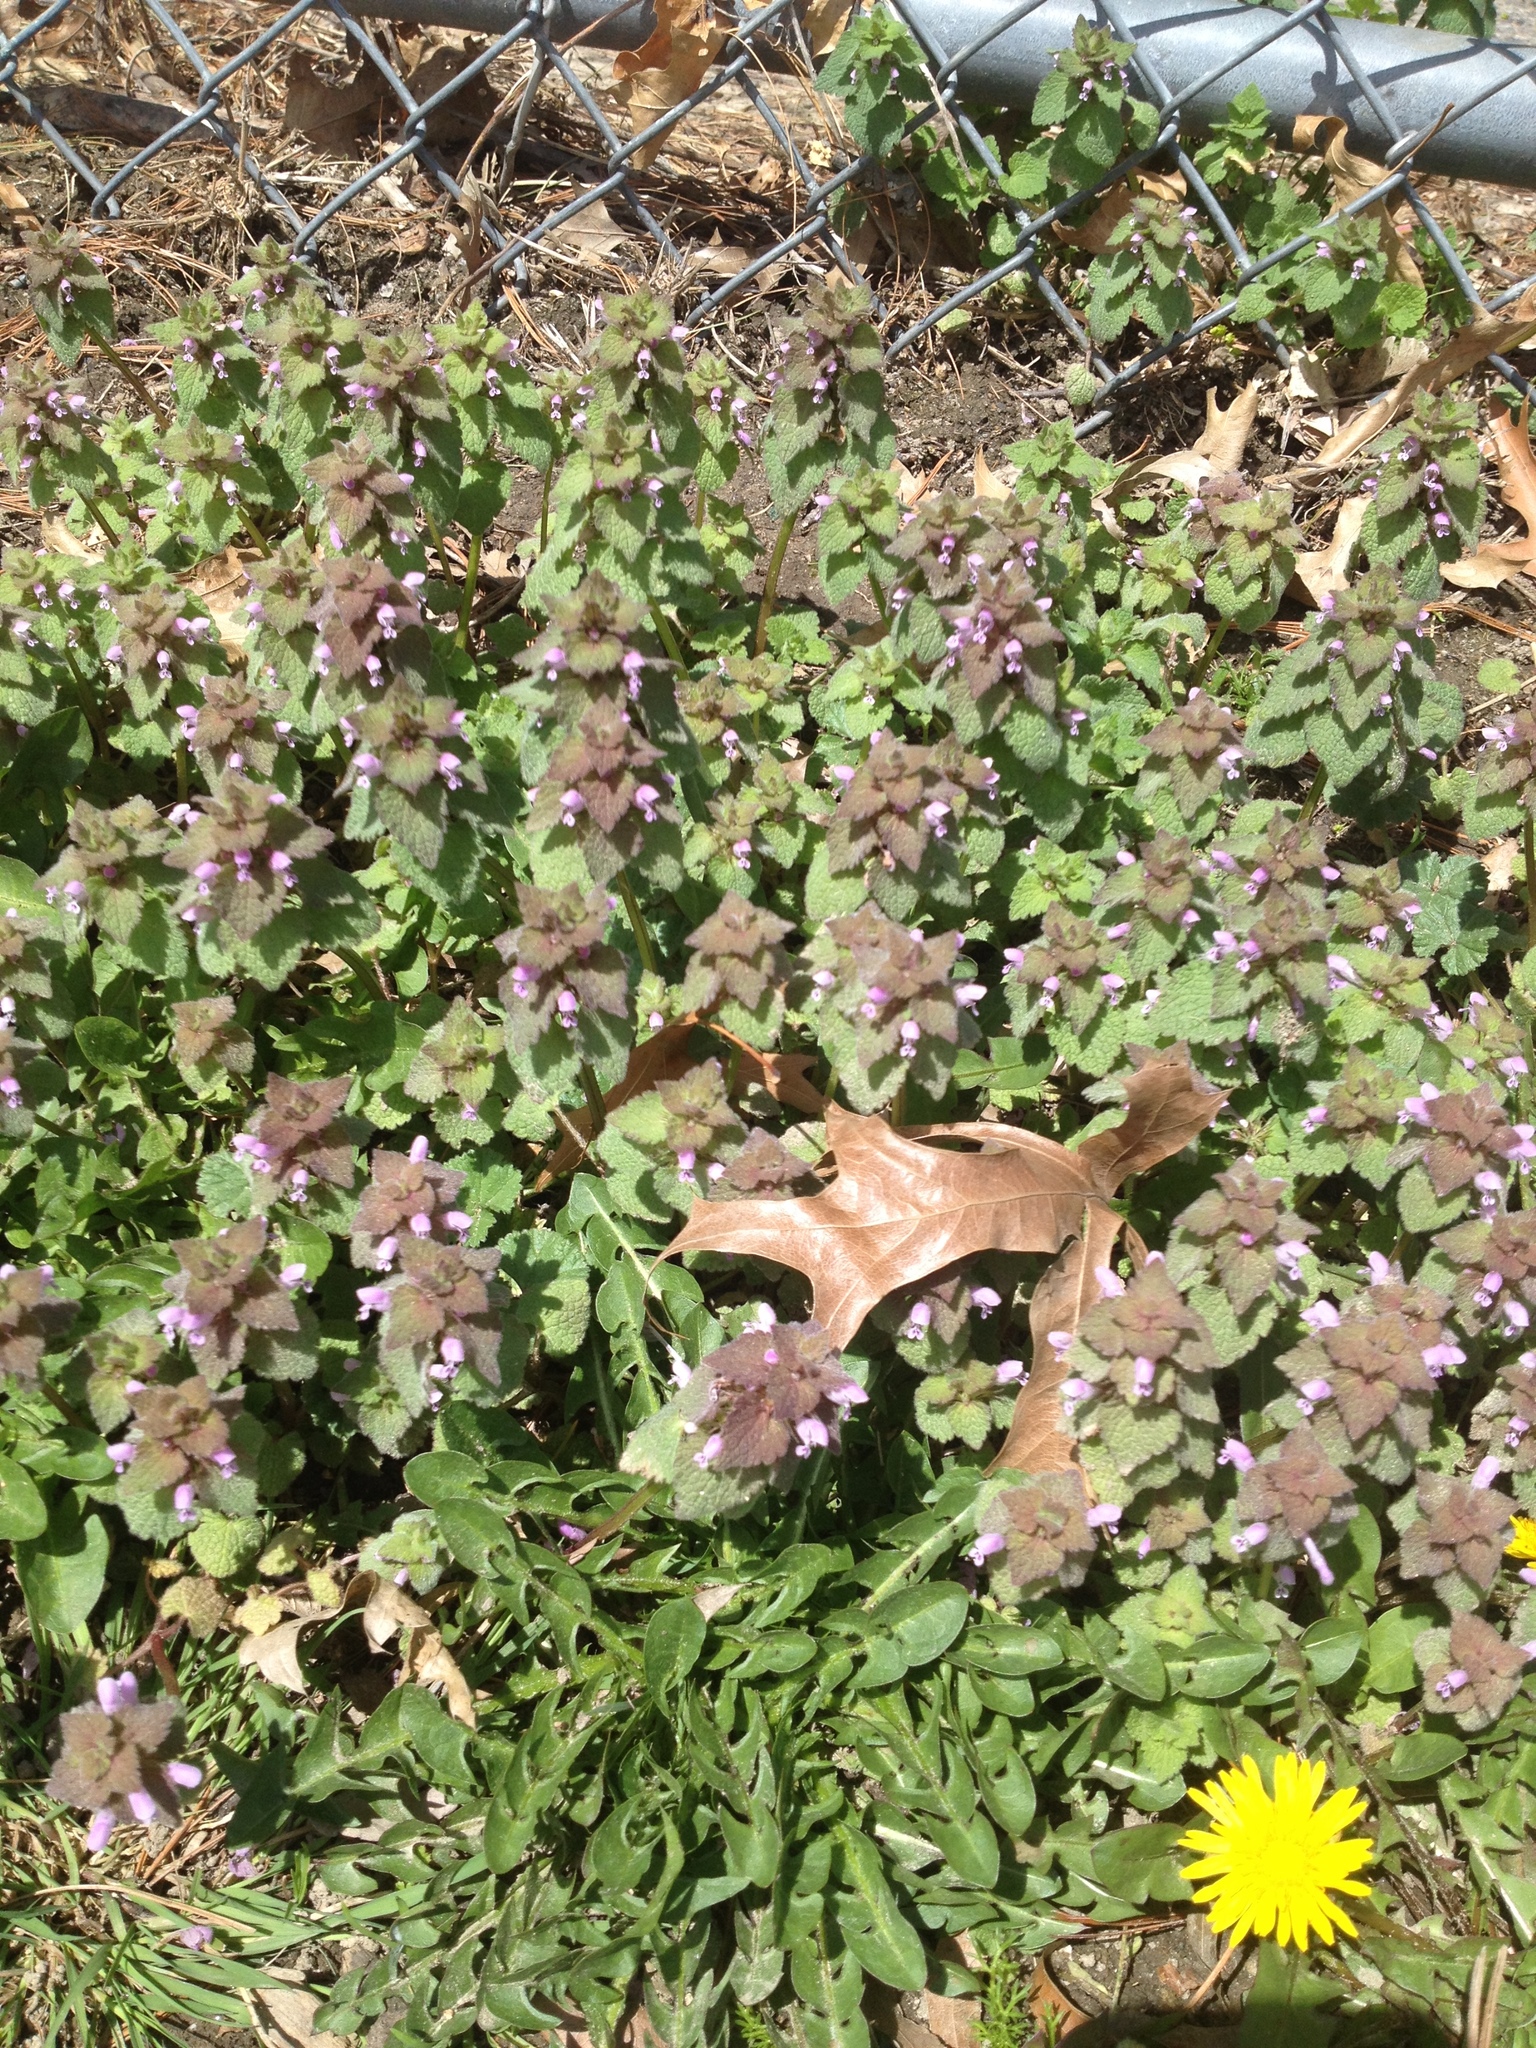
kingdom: Plantae
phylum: Tracheophyta
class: Magnoliopsida
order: Lamiales
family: Lamiaceae
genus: Lamium
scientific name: Lamium purpureum
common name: Red dead-nettle
